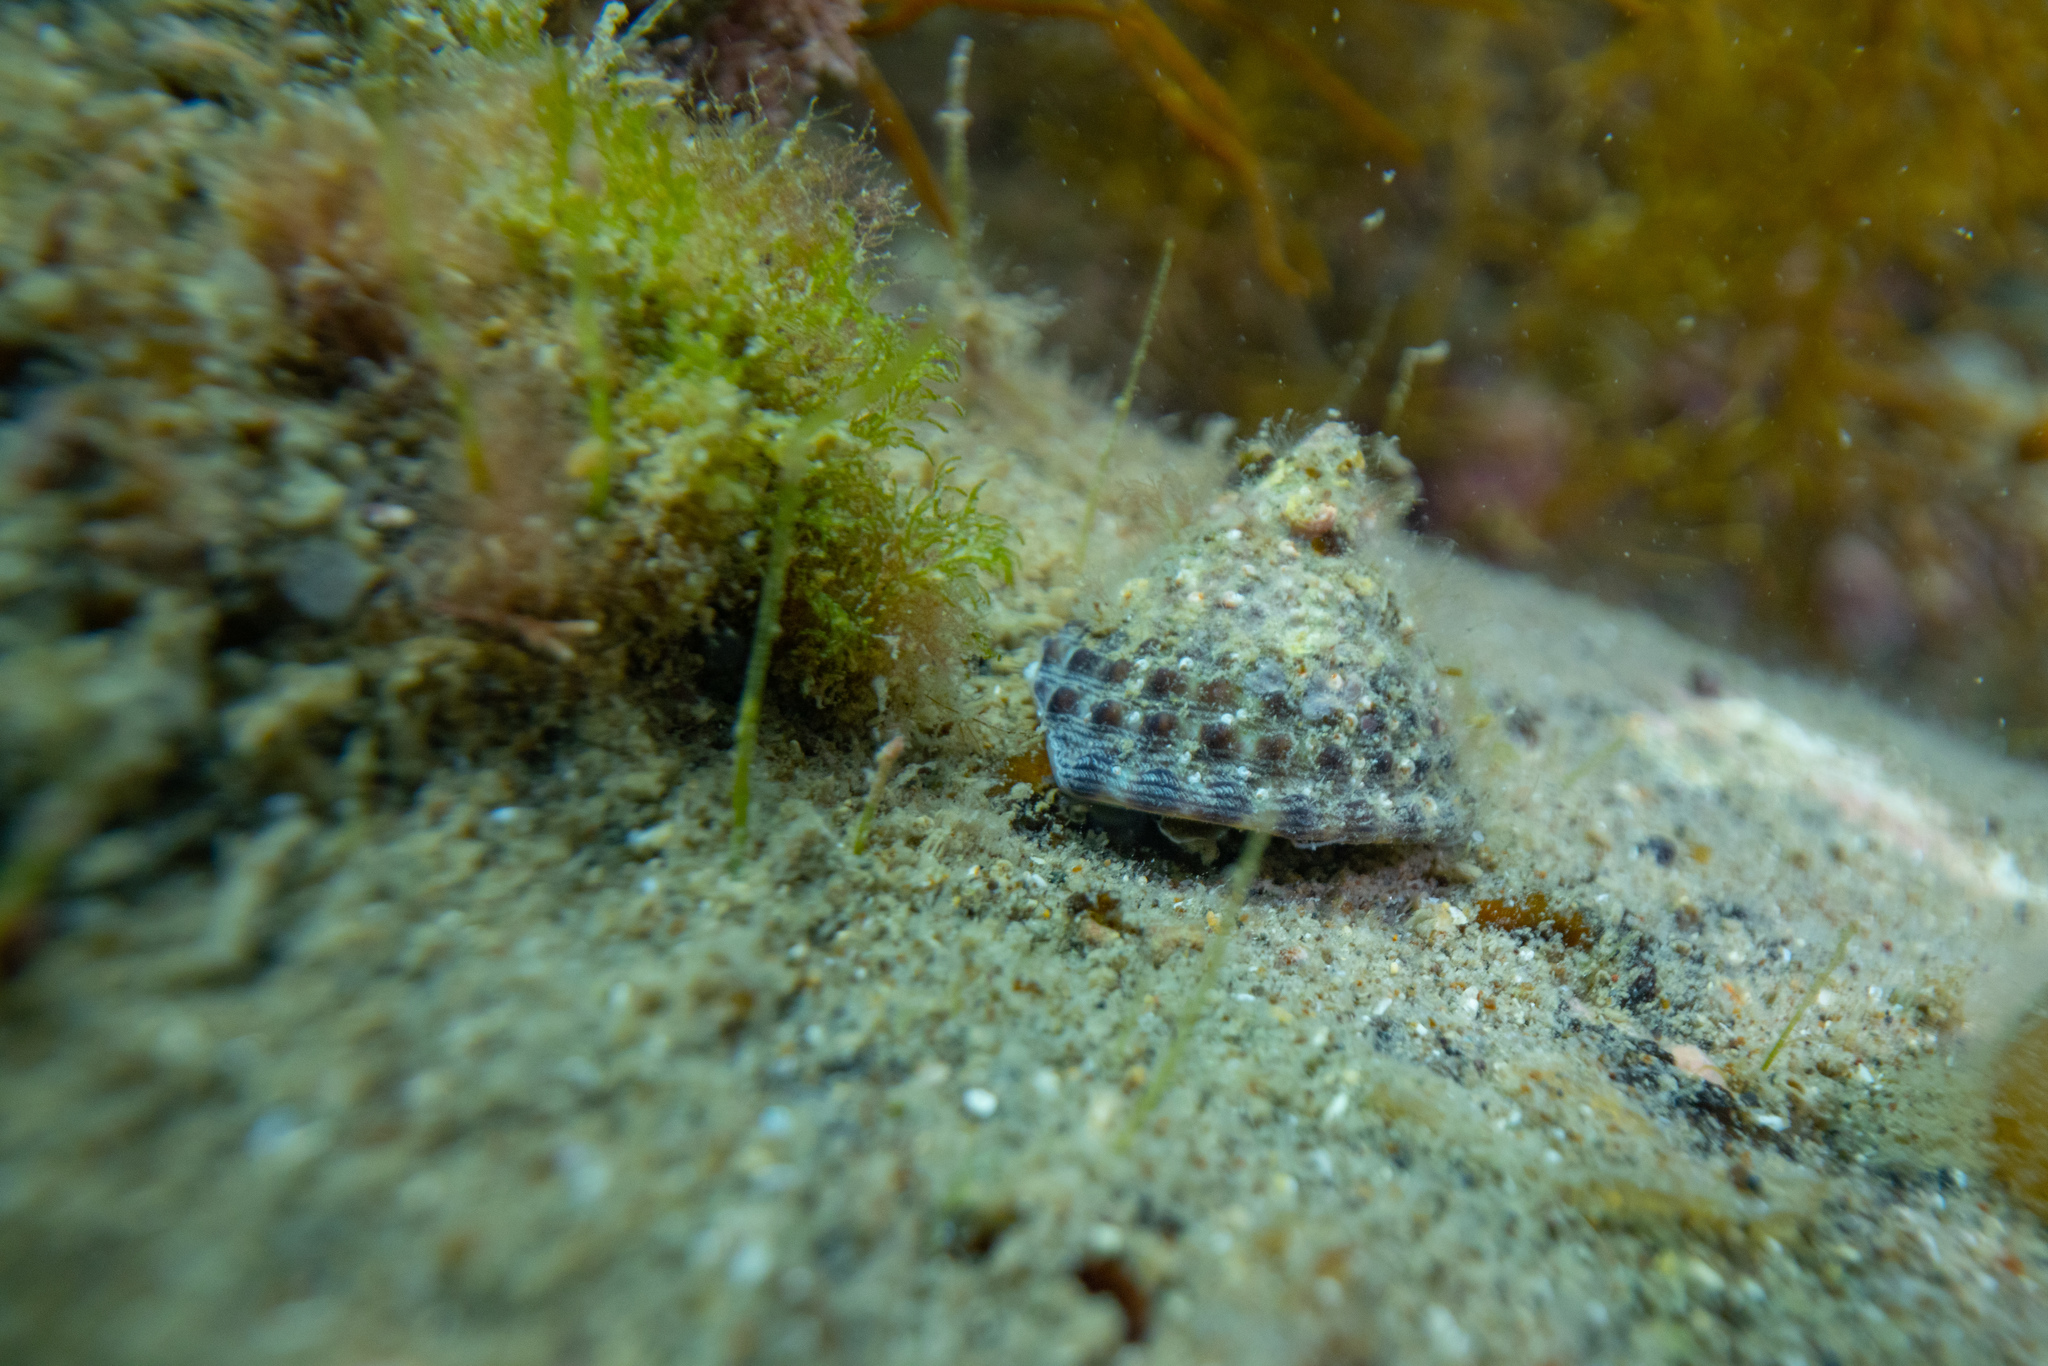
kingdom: Animalia
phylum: Mollusca
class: Gastropoda
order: Trochida
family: Trochidae
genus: Coelotrochus
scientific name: Coelotrochus viridis
